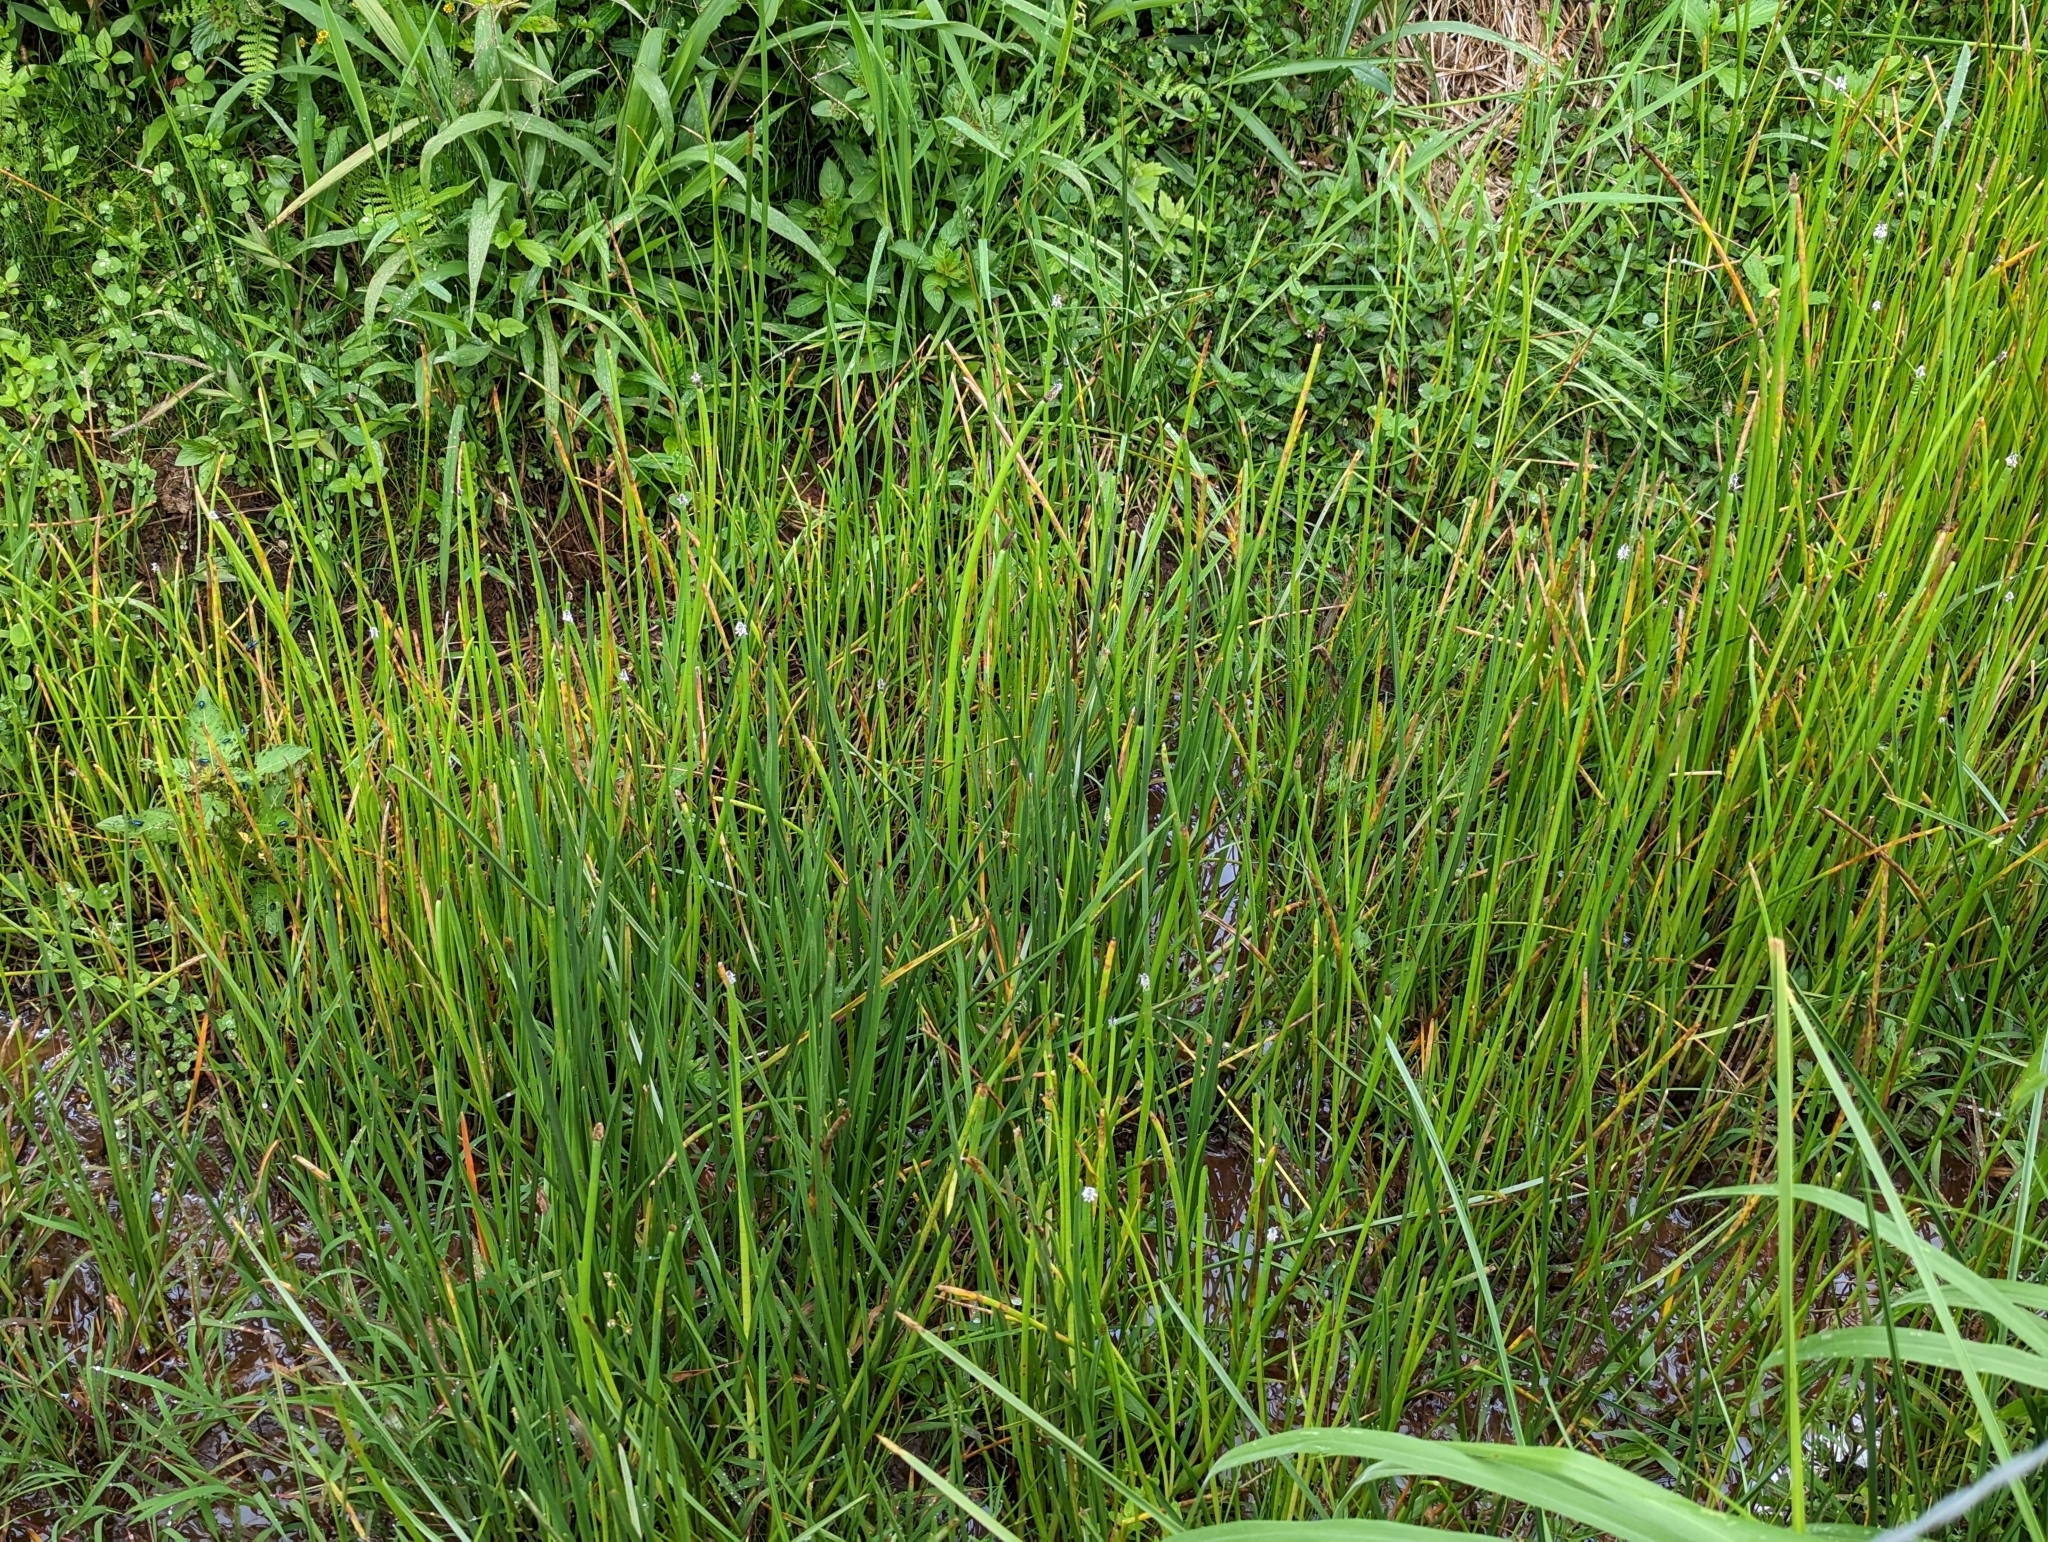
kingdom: Plantae
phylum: Tracheophyta
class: Liliopsida
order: Poales
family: Cyperaceae
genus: Eleocharis
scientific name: Eleocharis elegans
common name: Elegant spike-rush
